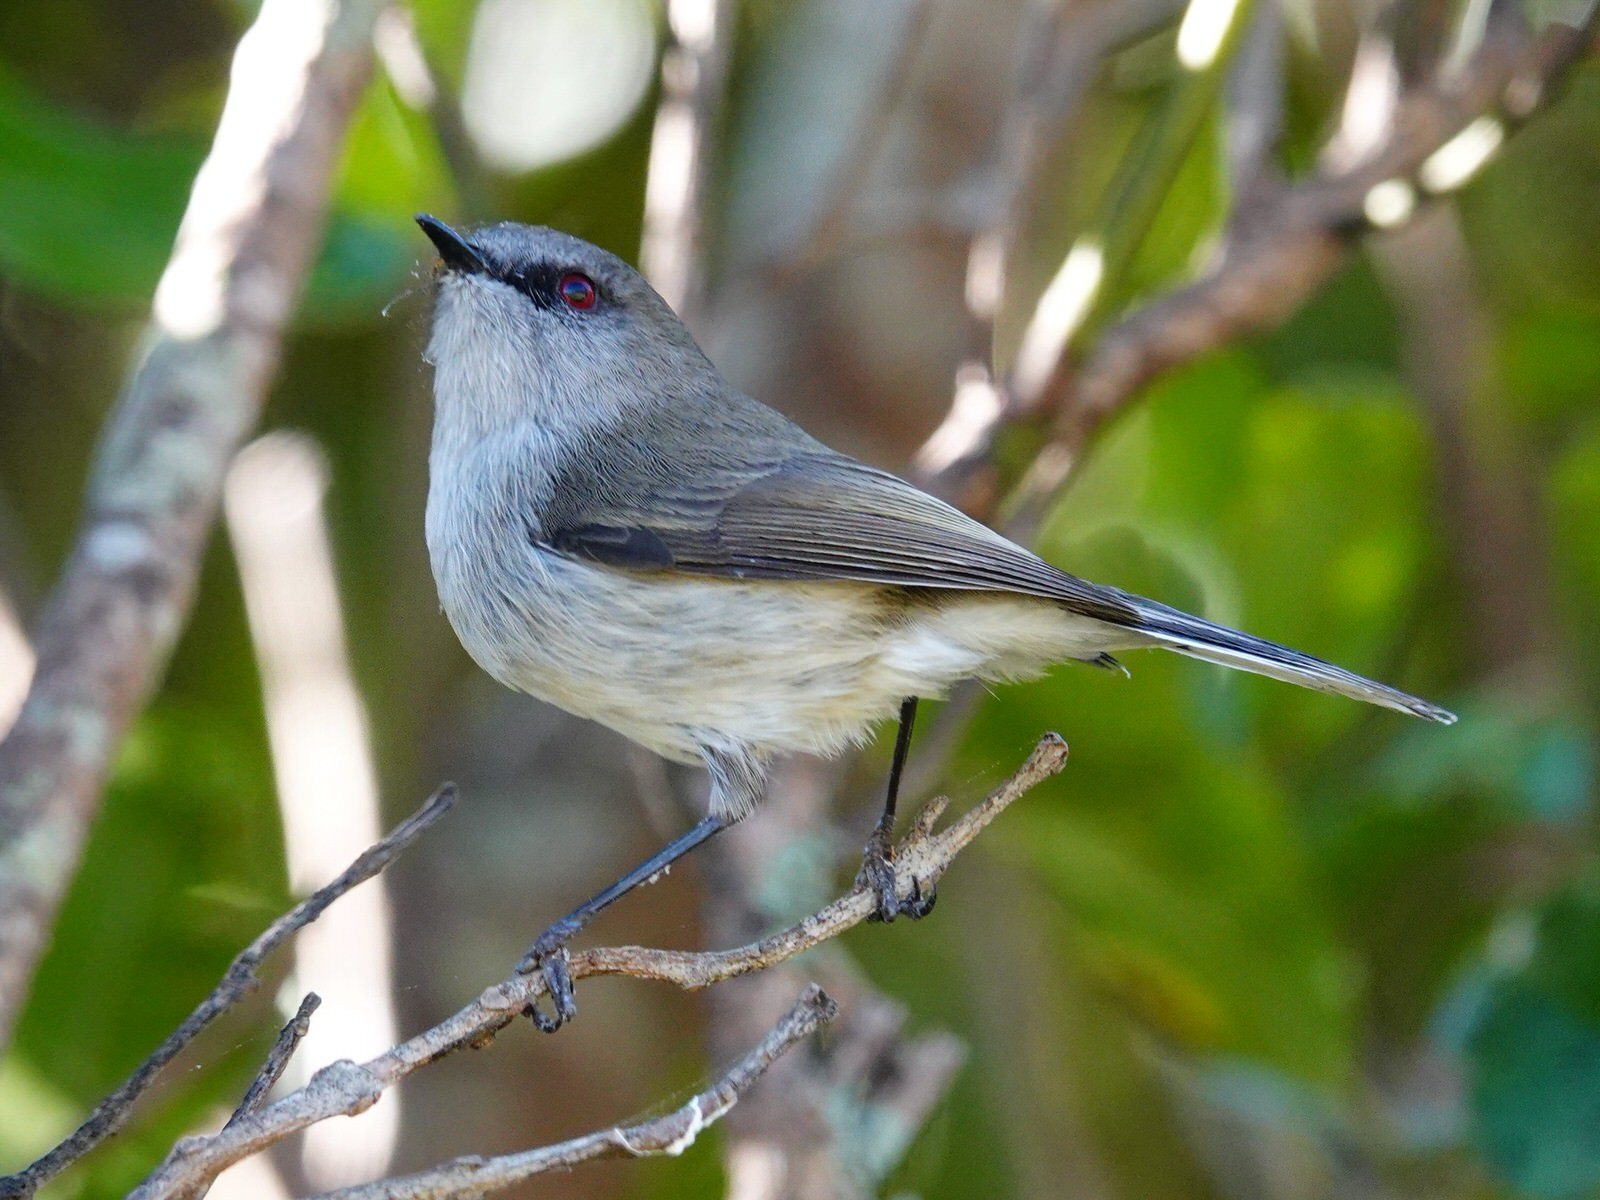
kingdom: Animalia
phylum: Chordata
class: Aves
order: Passeriformes
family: Acanthizidae
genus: Gerygone
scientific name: Gerygone igata
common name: Grey gerygone
